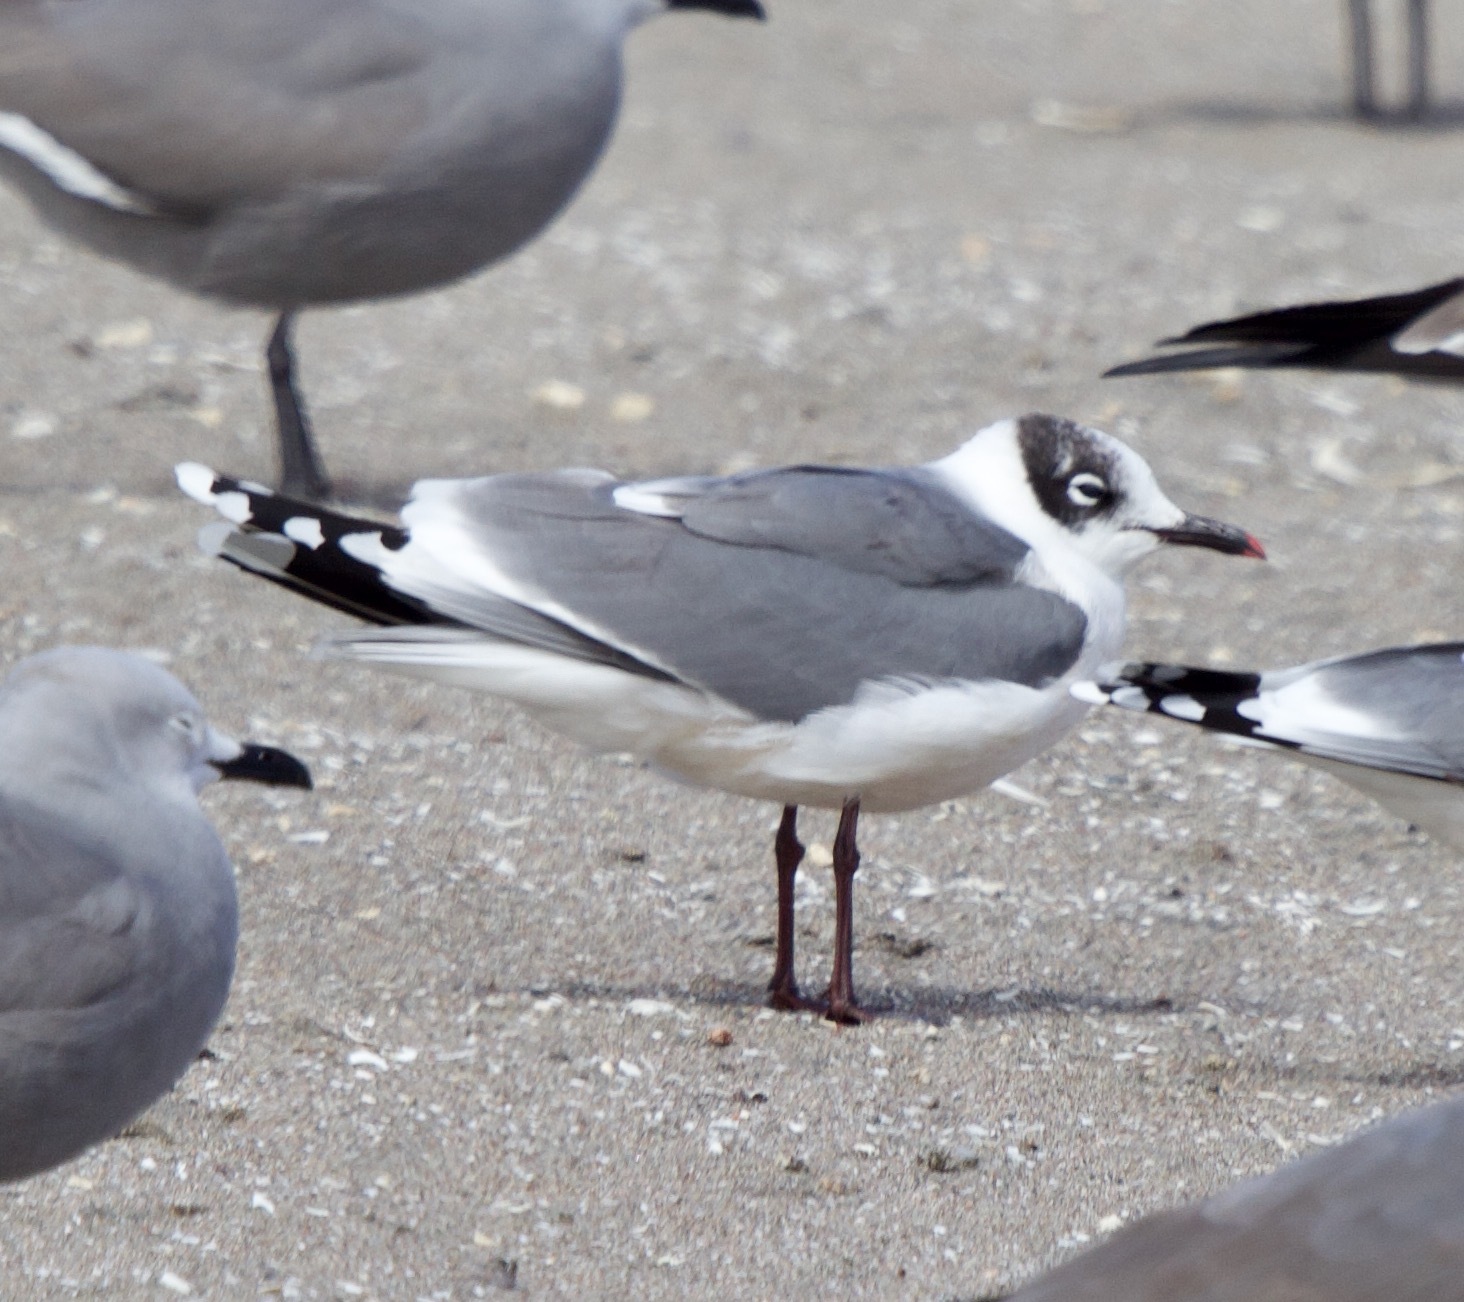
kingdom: Animalia
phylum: Chordata
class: Aves
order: Charadriiformes
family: Laridae
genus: Leucophaeus
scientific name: Leucophaeus pipixcan
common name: Franklin's gull
